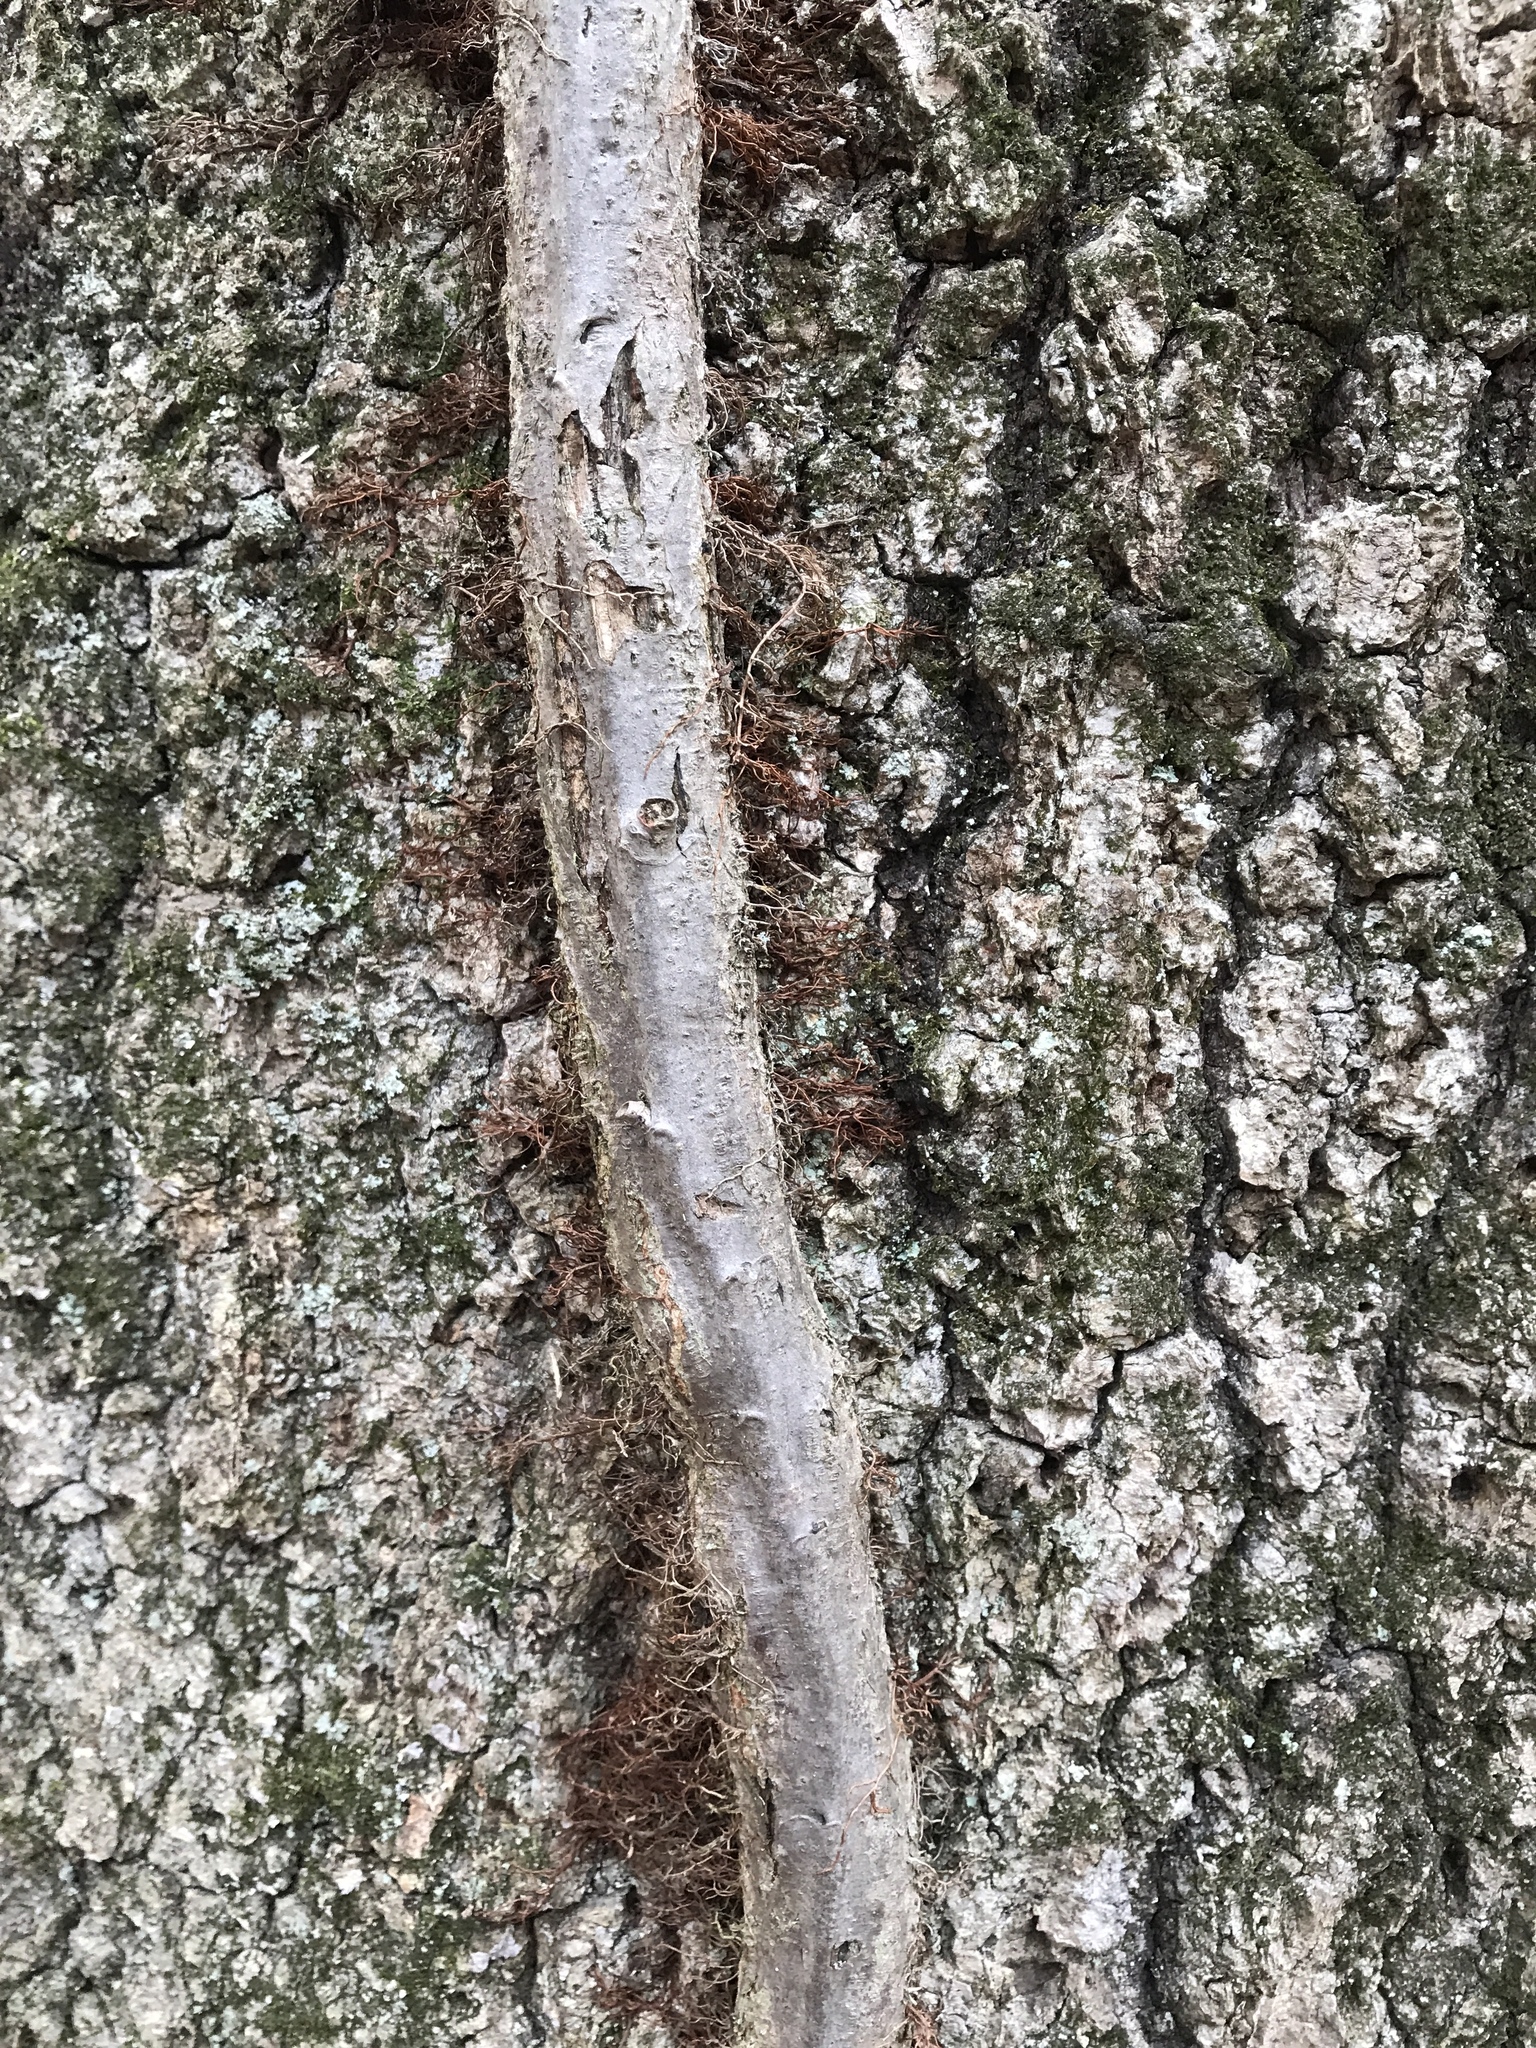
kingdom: Plantae
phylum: Tracheophyta
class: Magnoliopsida
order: Sapindales
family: Anacardiaceae
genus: Toxicodendron
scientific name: Toxicodendron radicans
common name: Poison ivy
